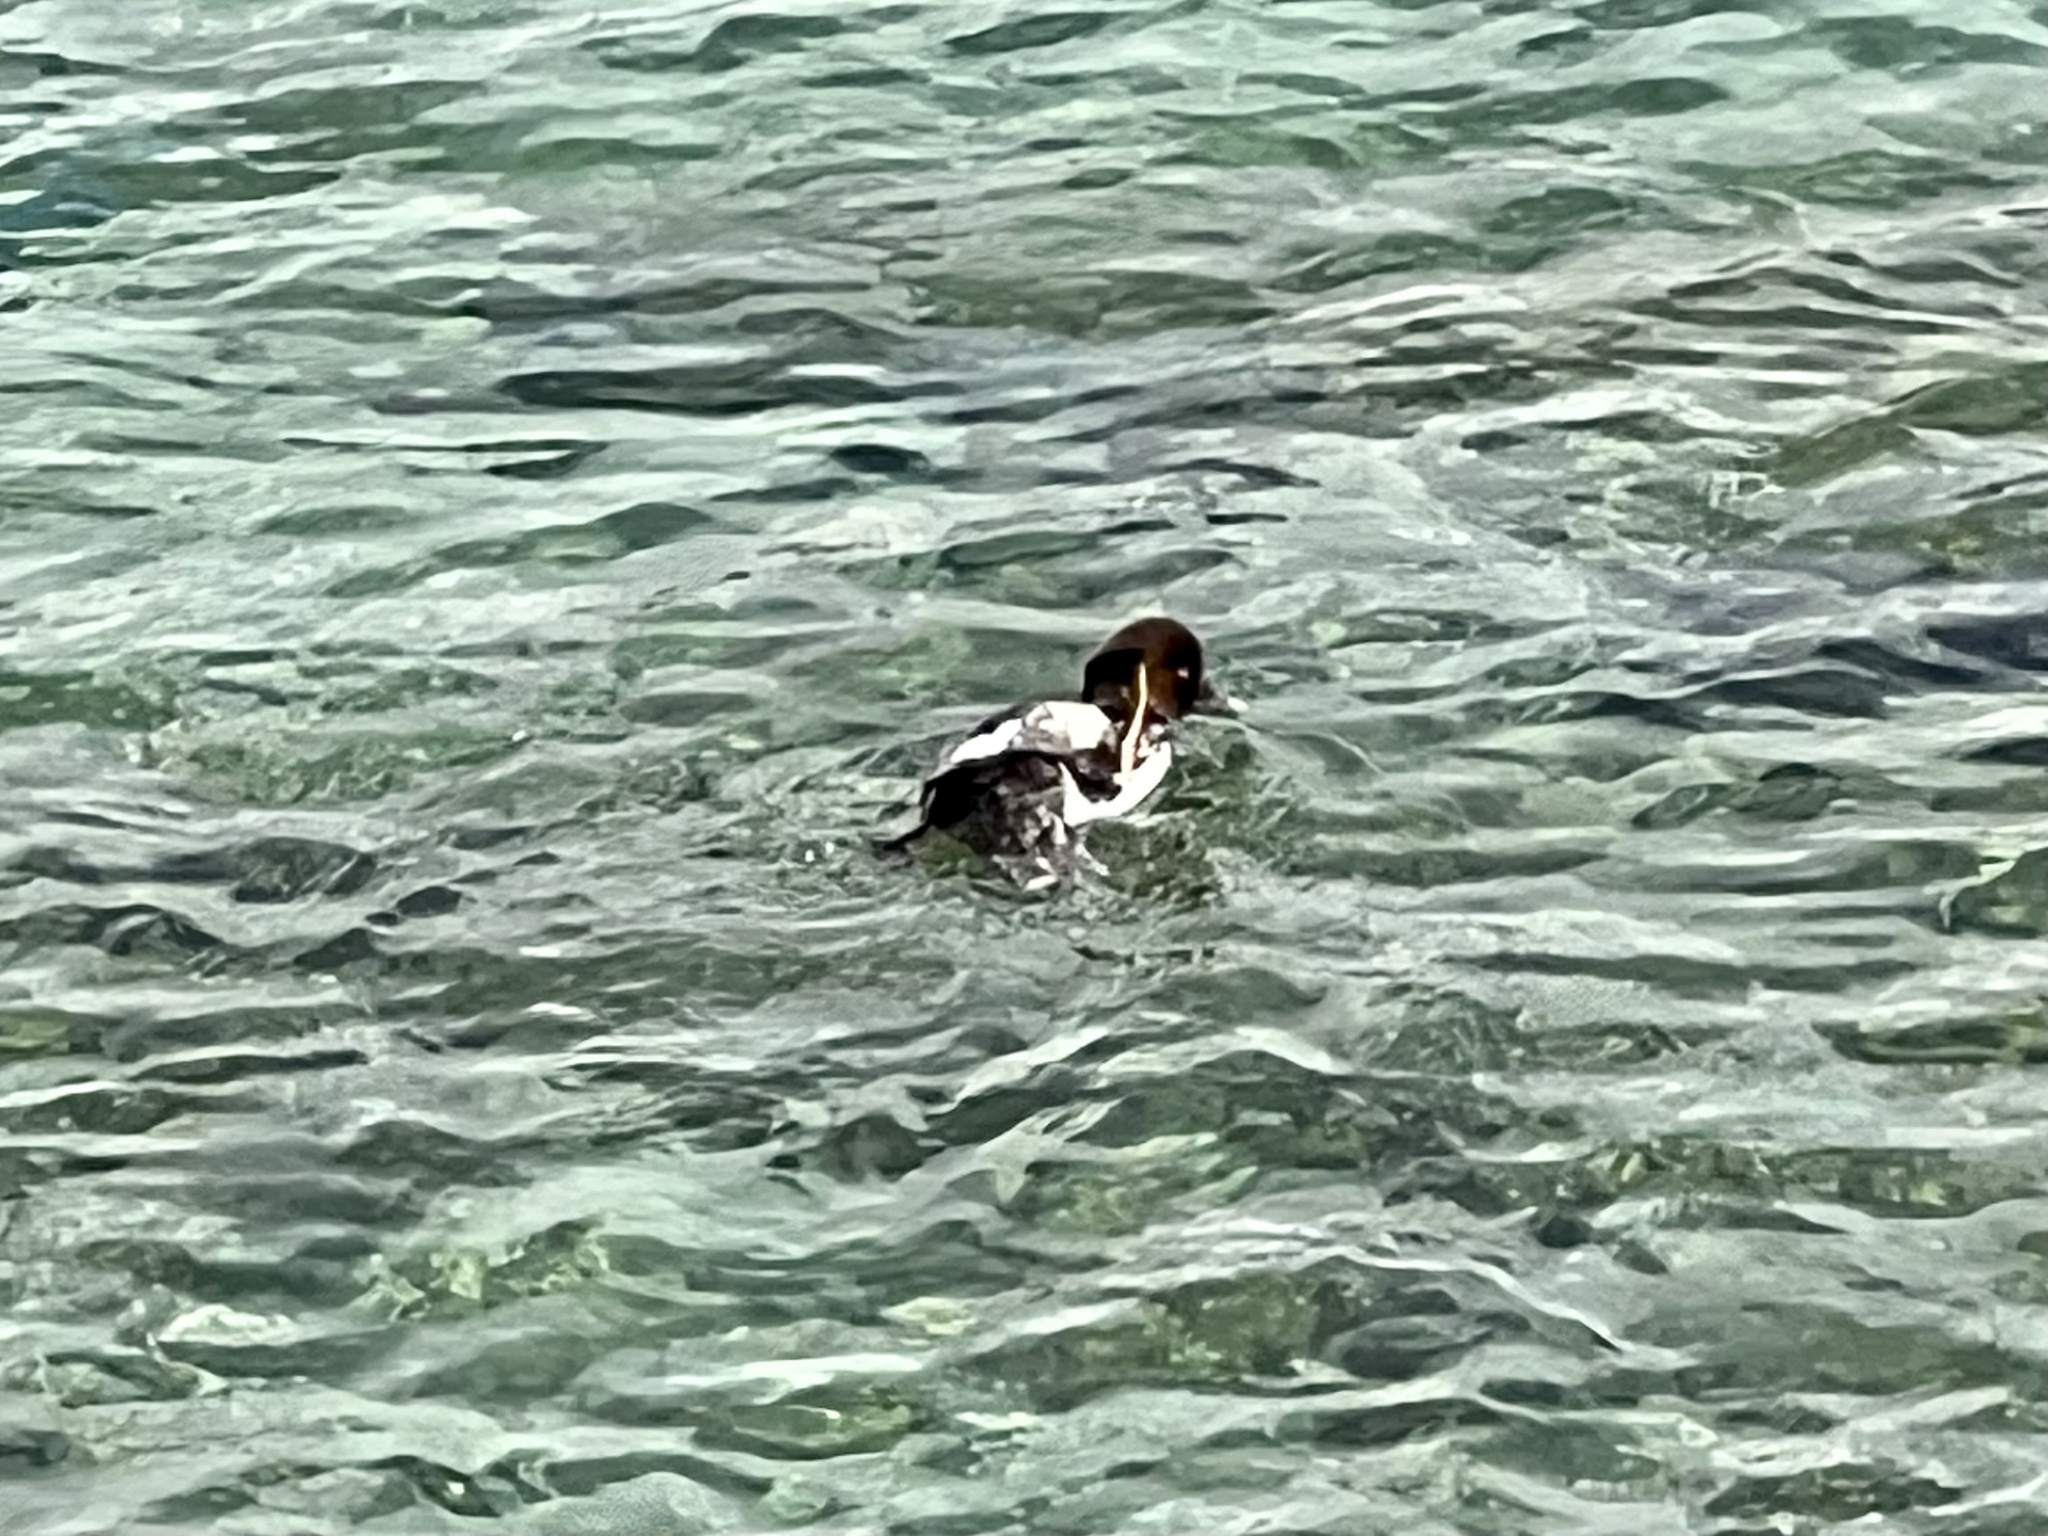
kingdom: Animalia
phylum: Chordata
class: Aves
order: Anseriformes
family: Anatidae
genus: Bucephala
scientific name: Bucephala clangula
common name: Common goldeneye
